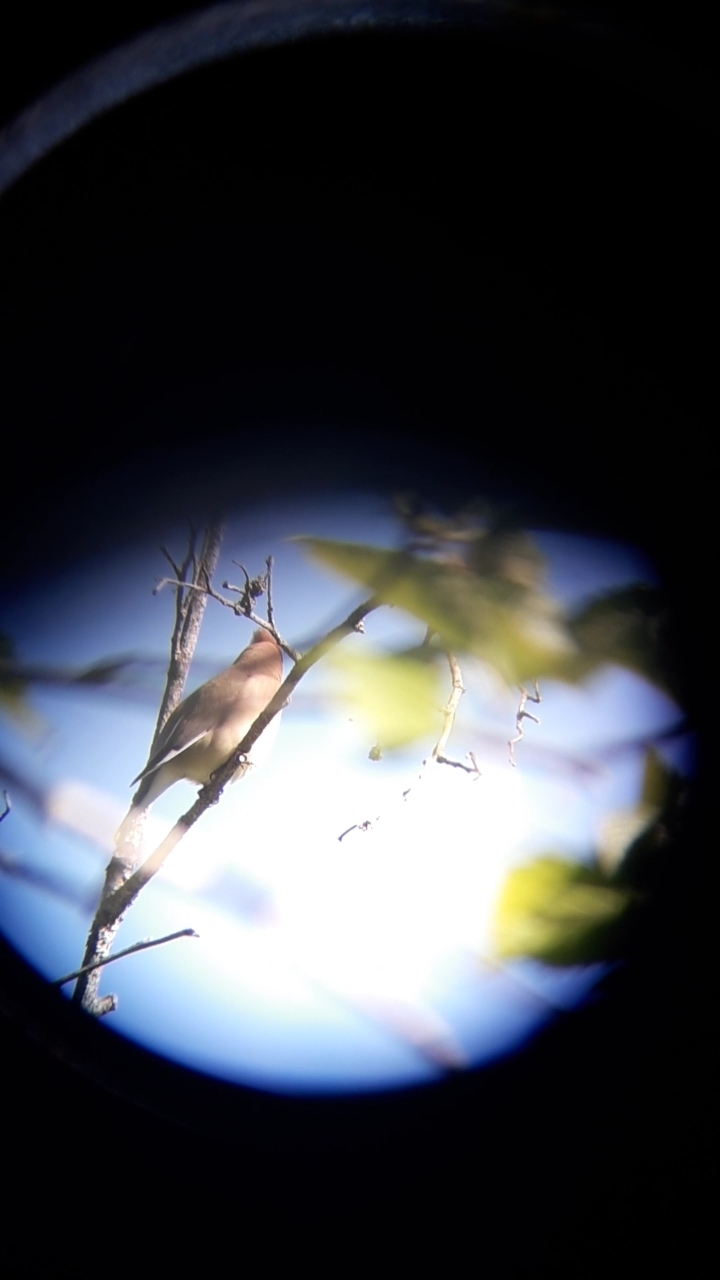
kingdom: Animalia
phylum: Chordata
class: Aves
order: Passeriformes
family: Bombycillidae
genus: Bombycilla
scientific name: Bombycilla cedrorum
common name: Cedar waxwing
